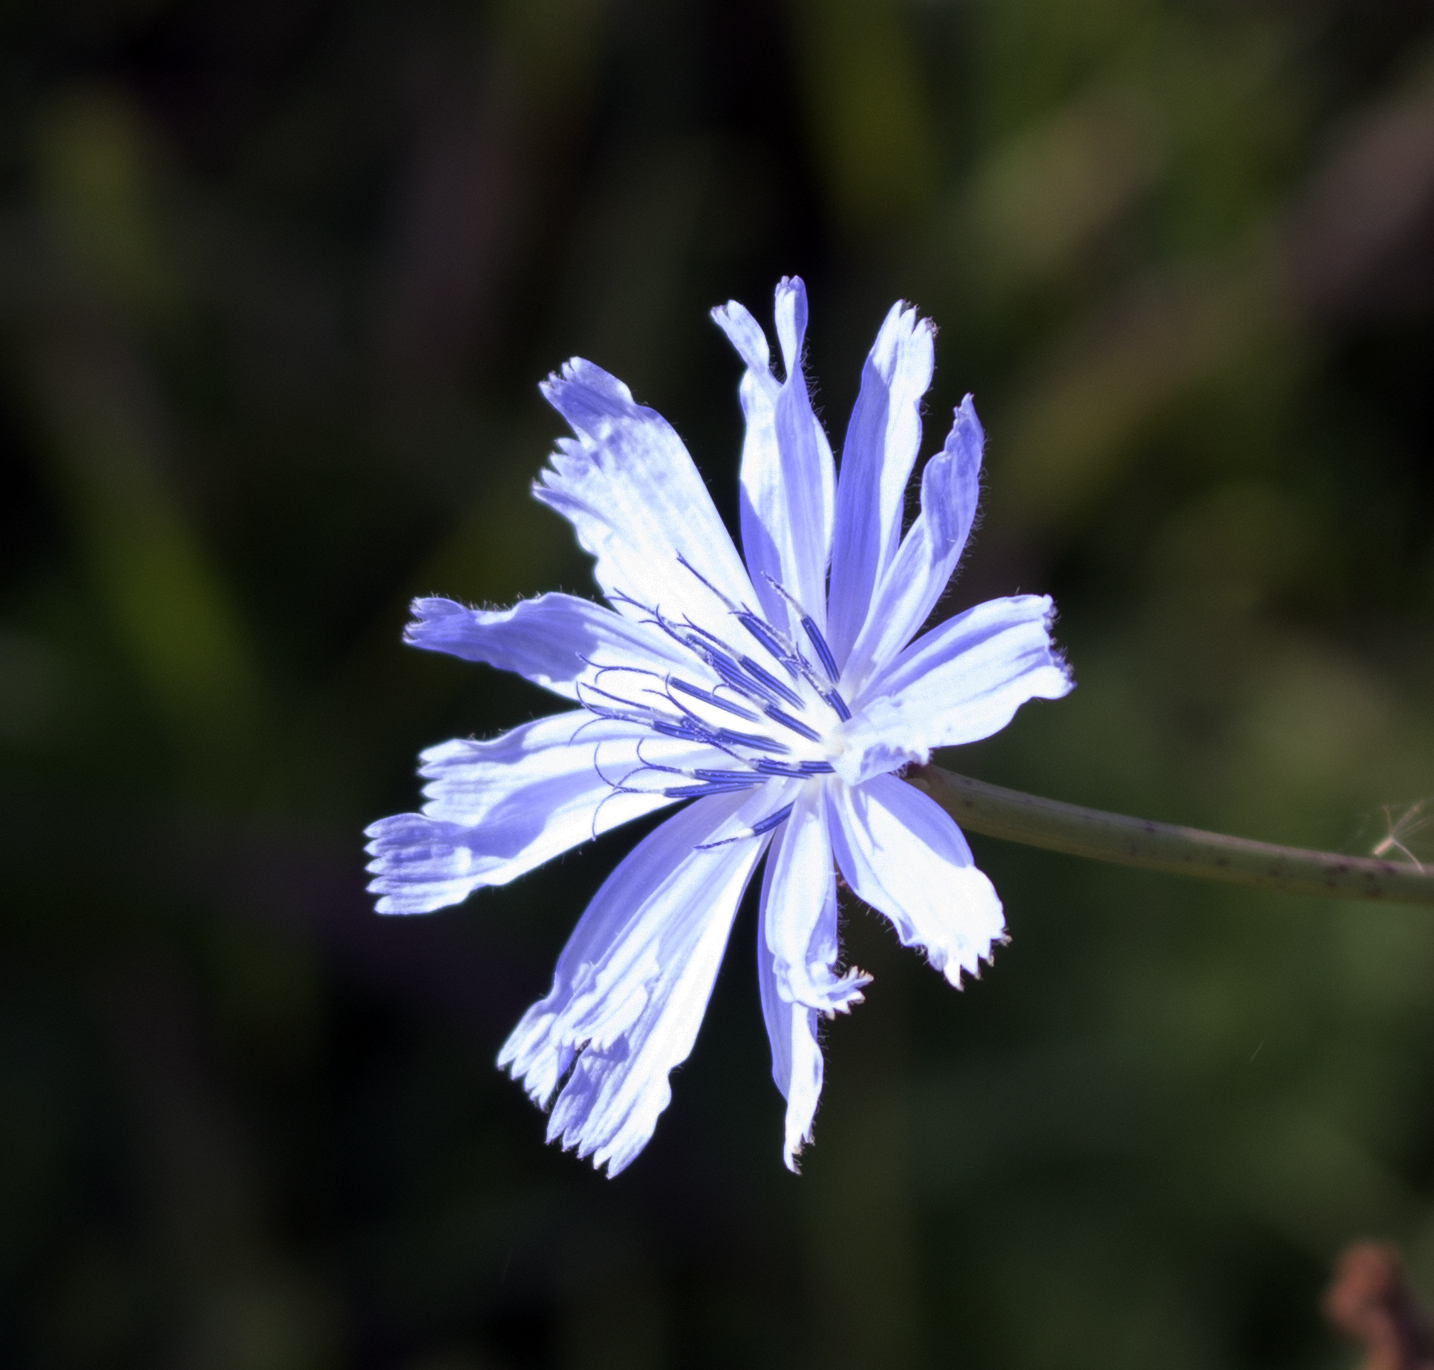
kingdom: Plantae
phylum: Tracheophyta
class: Magnoliopsida
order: Asterales
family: Asteraceae
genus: Cichorium
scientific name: Cichorium intybus
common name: Chicory
